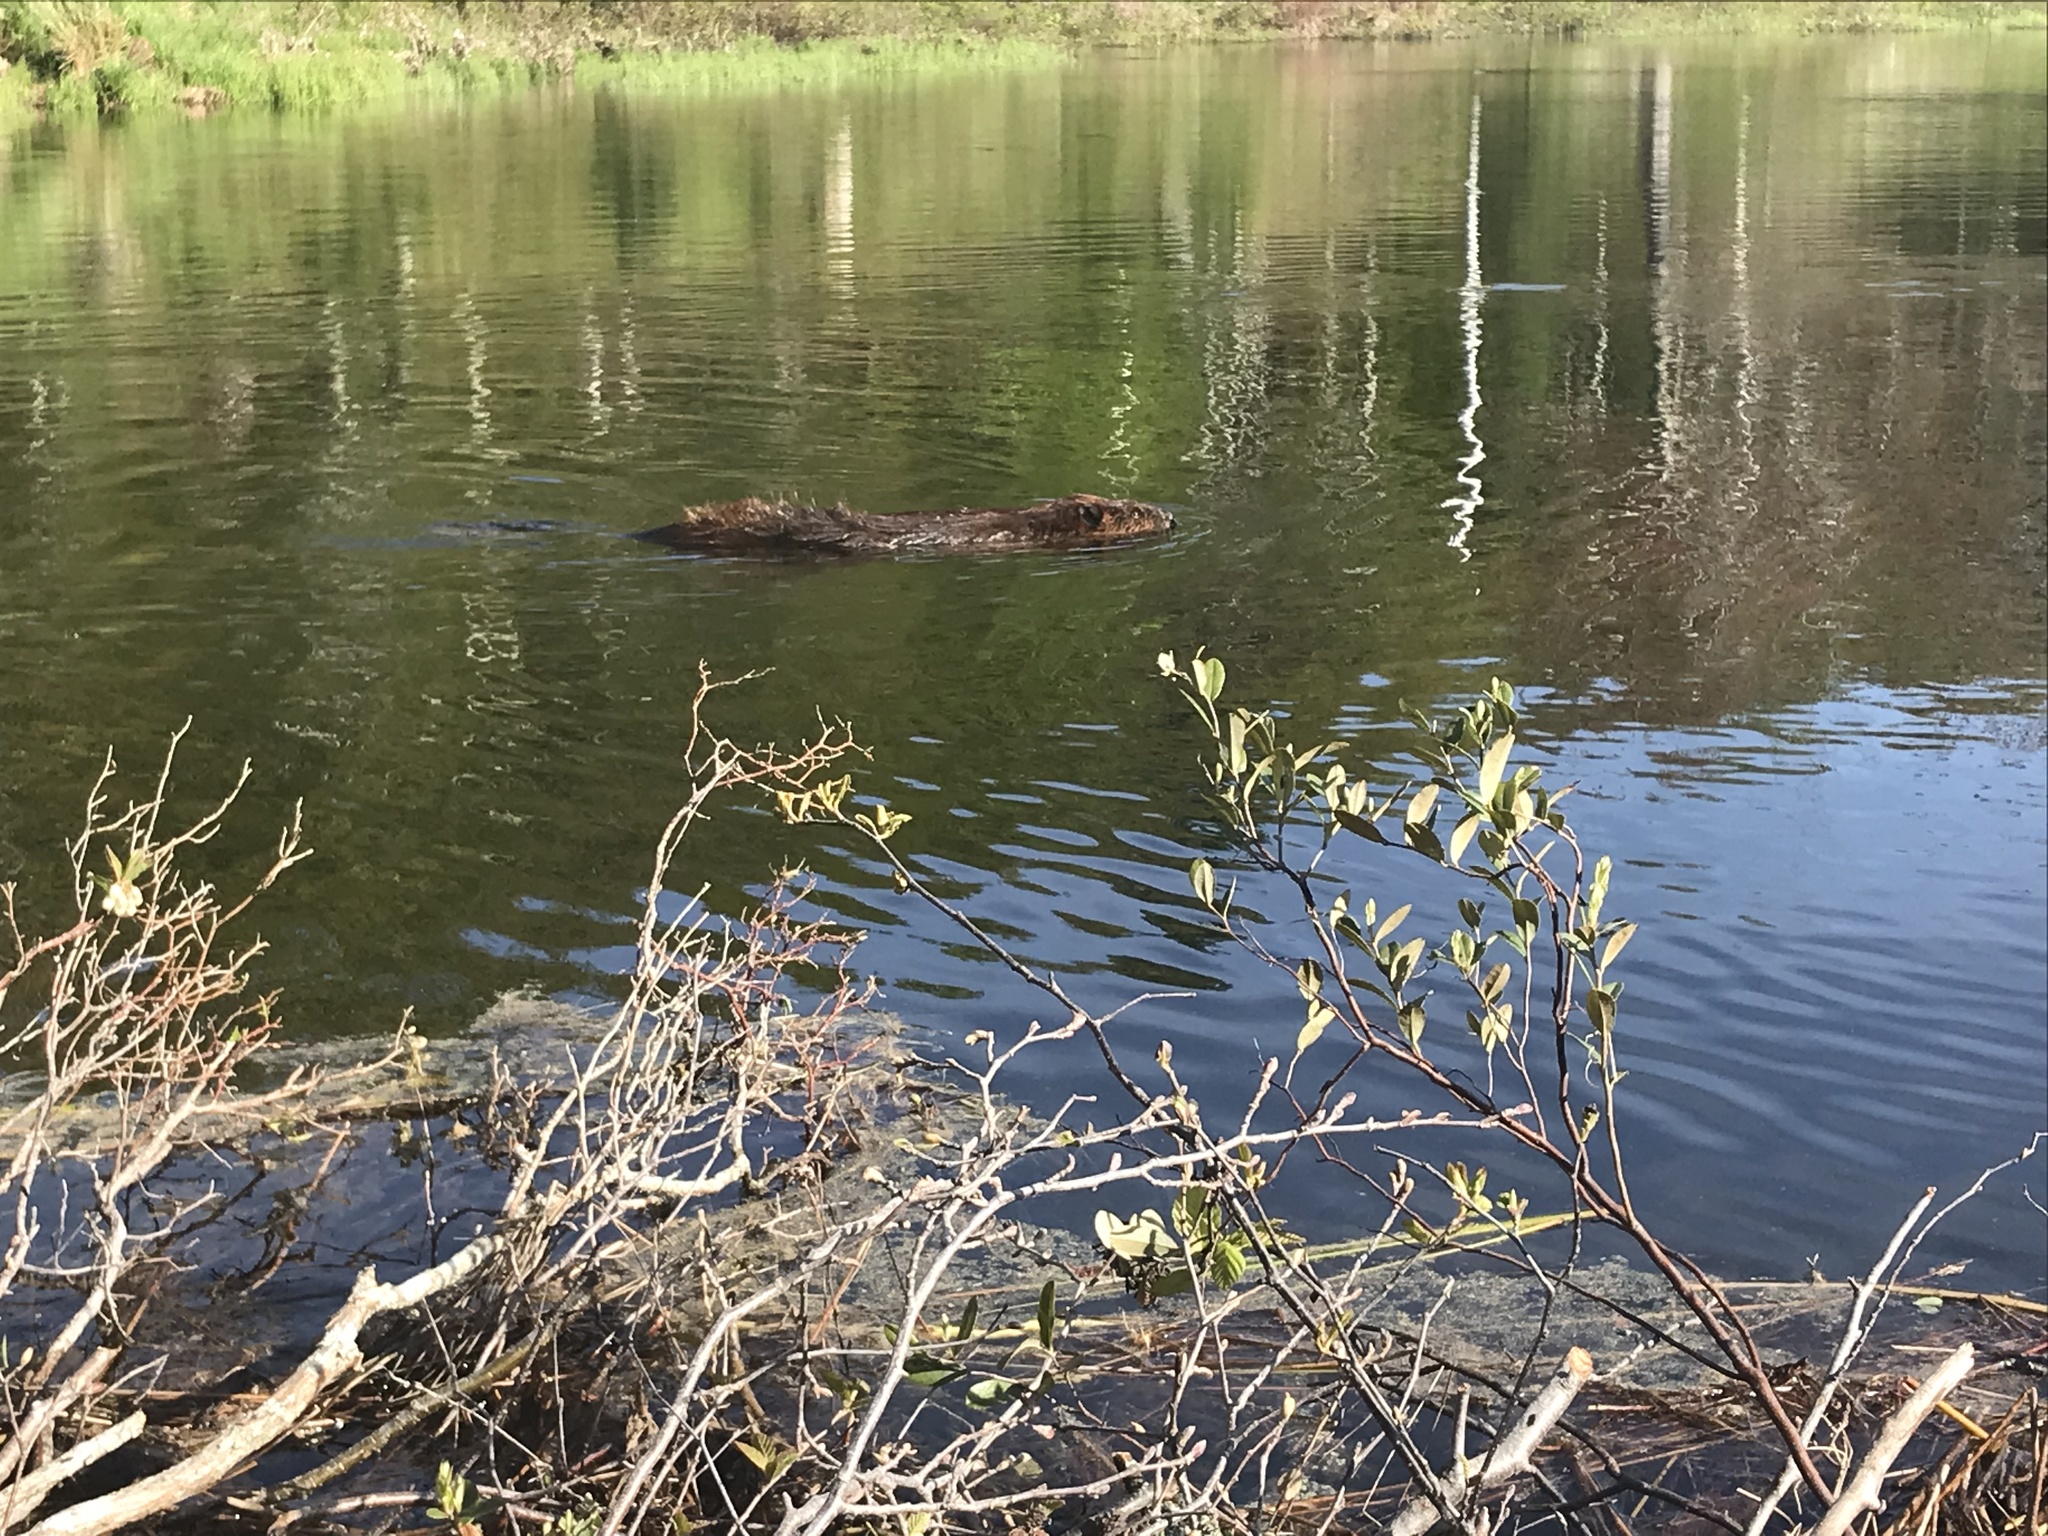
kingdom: Animalia
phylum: Chordata
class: Mammalia
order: Rodentia
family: Castoridae
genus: Castor
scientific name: Castor canadensis
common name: American beaver
